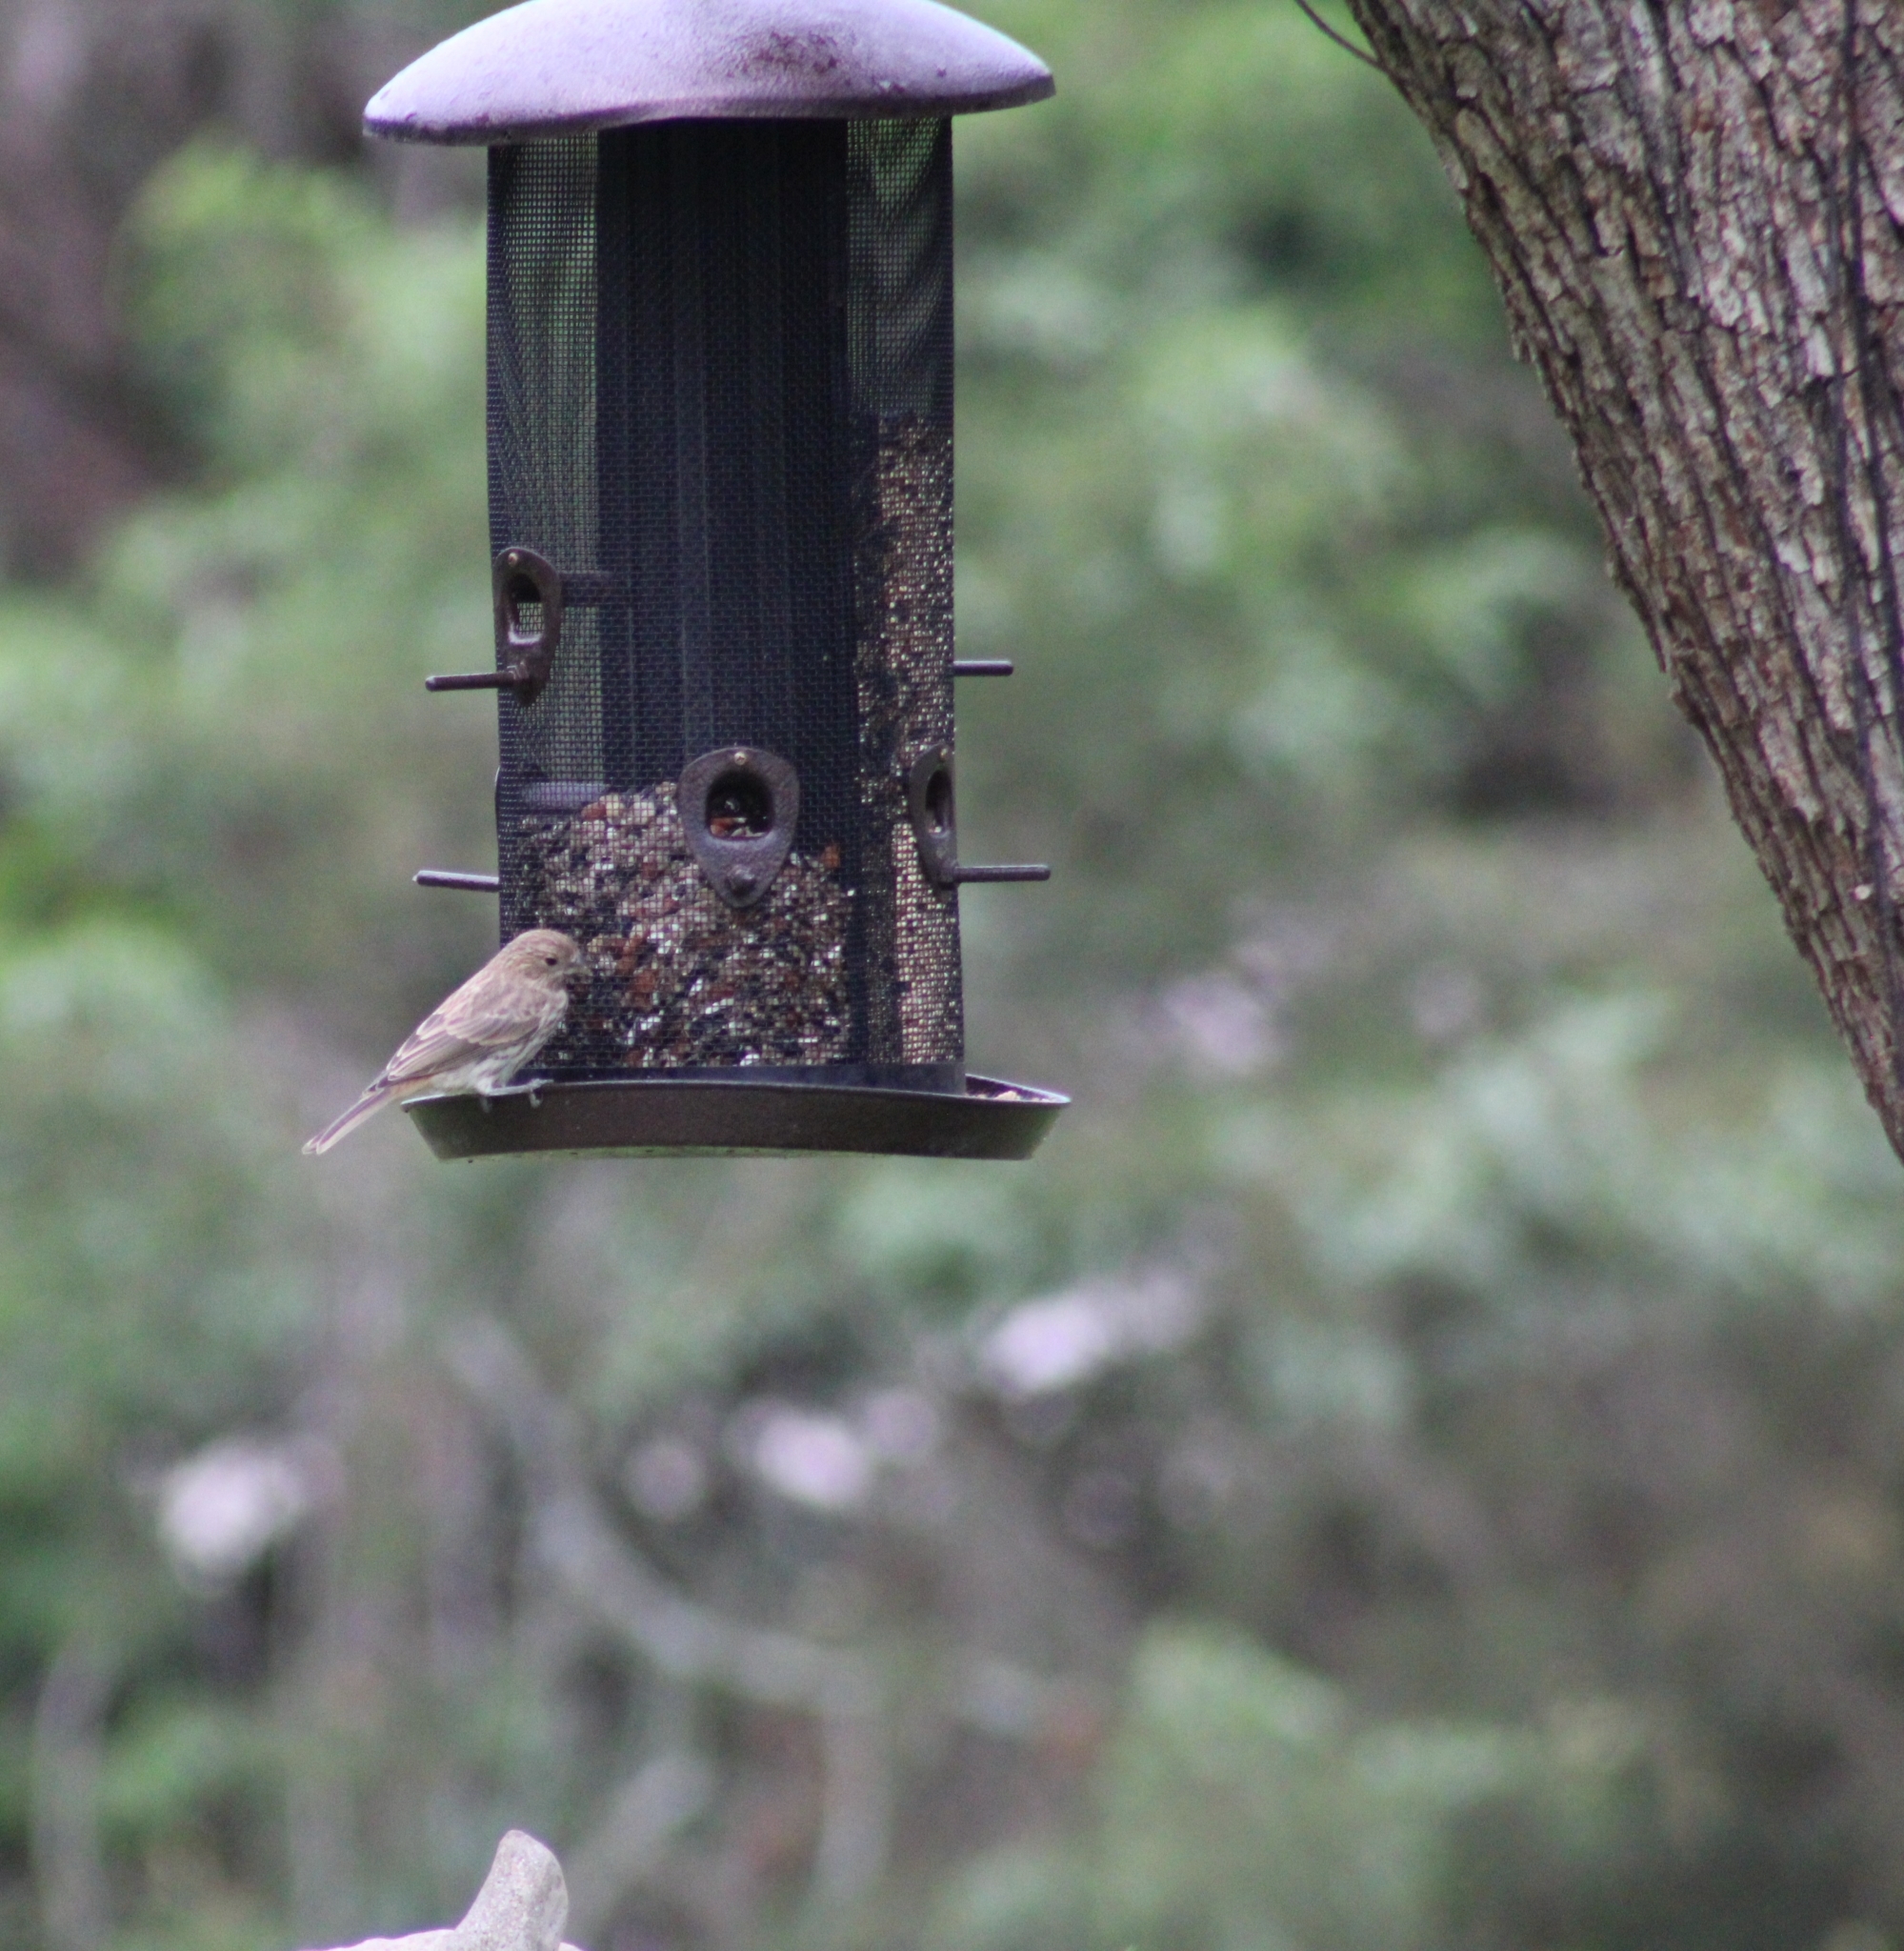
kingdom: Animalia
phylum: Chordata
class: Aves
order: Passeriformes
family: Fringillidae
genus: Haemorhous
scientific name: Haemorhous mexicanus
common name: House finch
